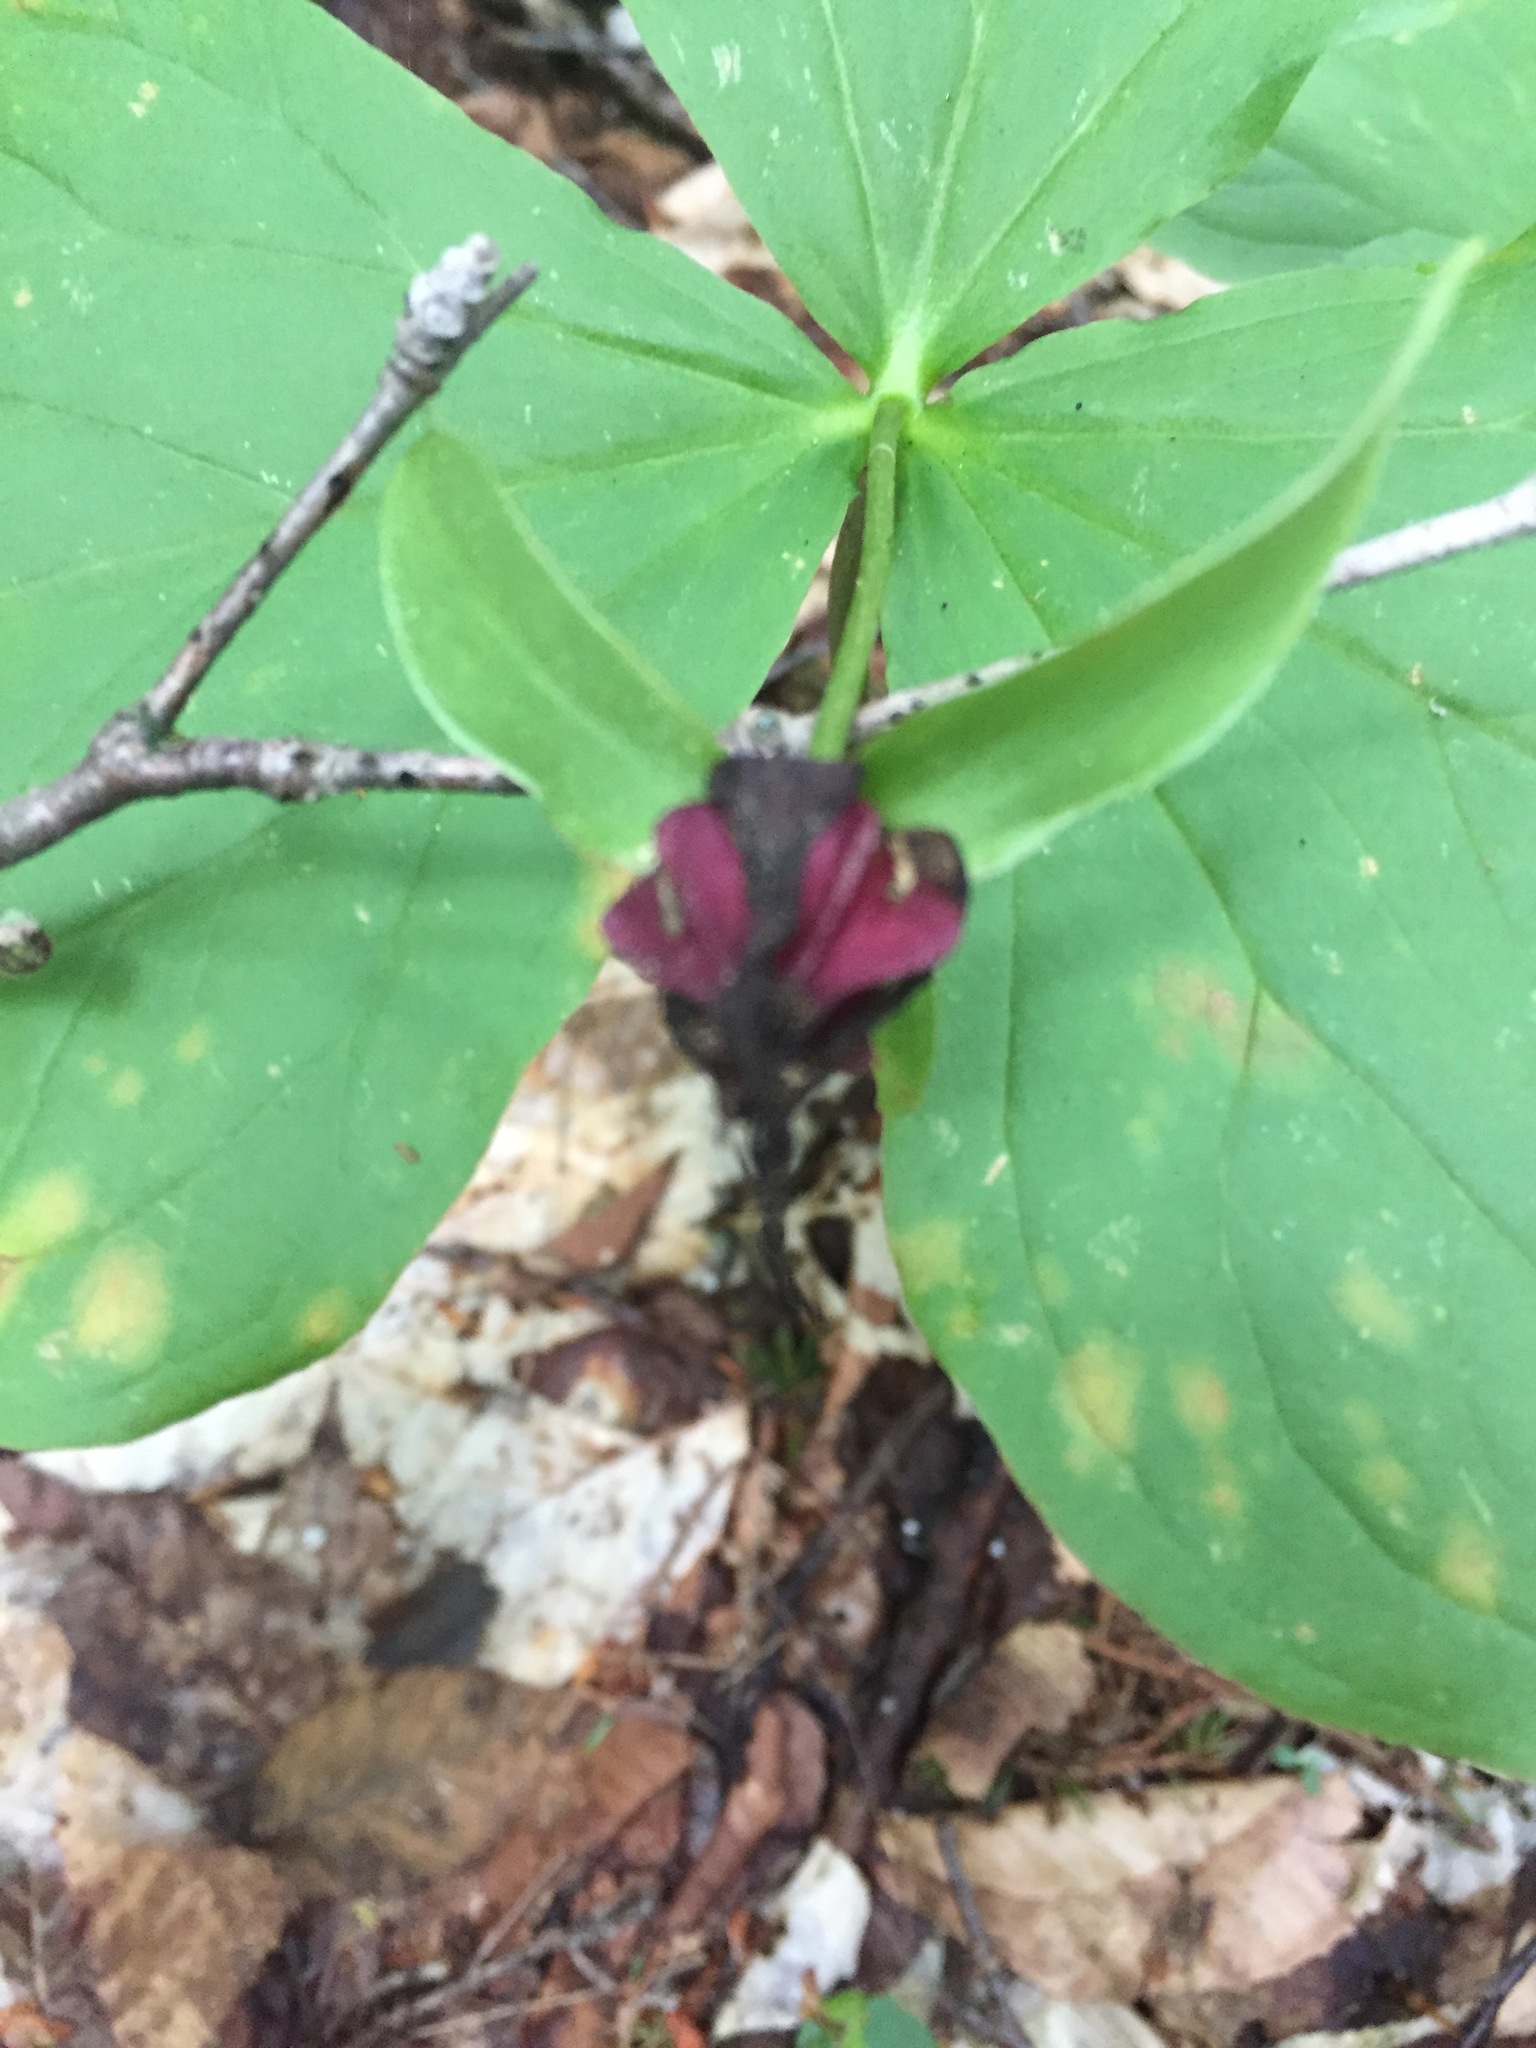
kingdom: Plantae
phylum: Tracheophyta
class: Liliopsida
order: Liliales
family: Melanthiaceae
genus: Trillium
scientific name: Trillium erectum
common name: Purple trillium
